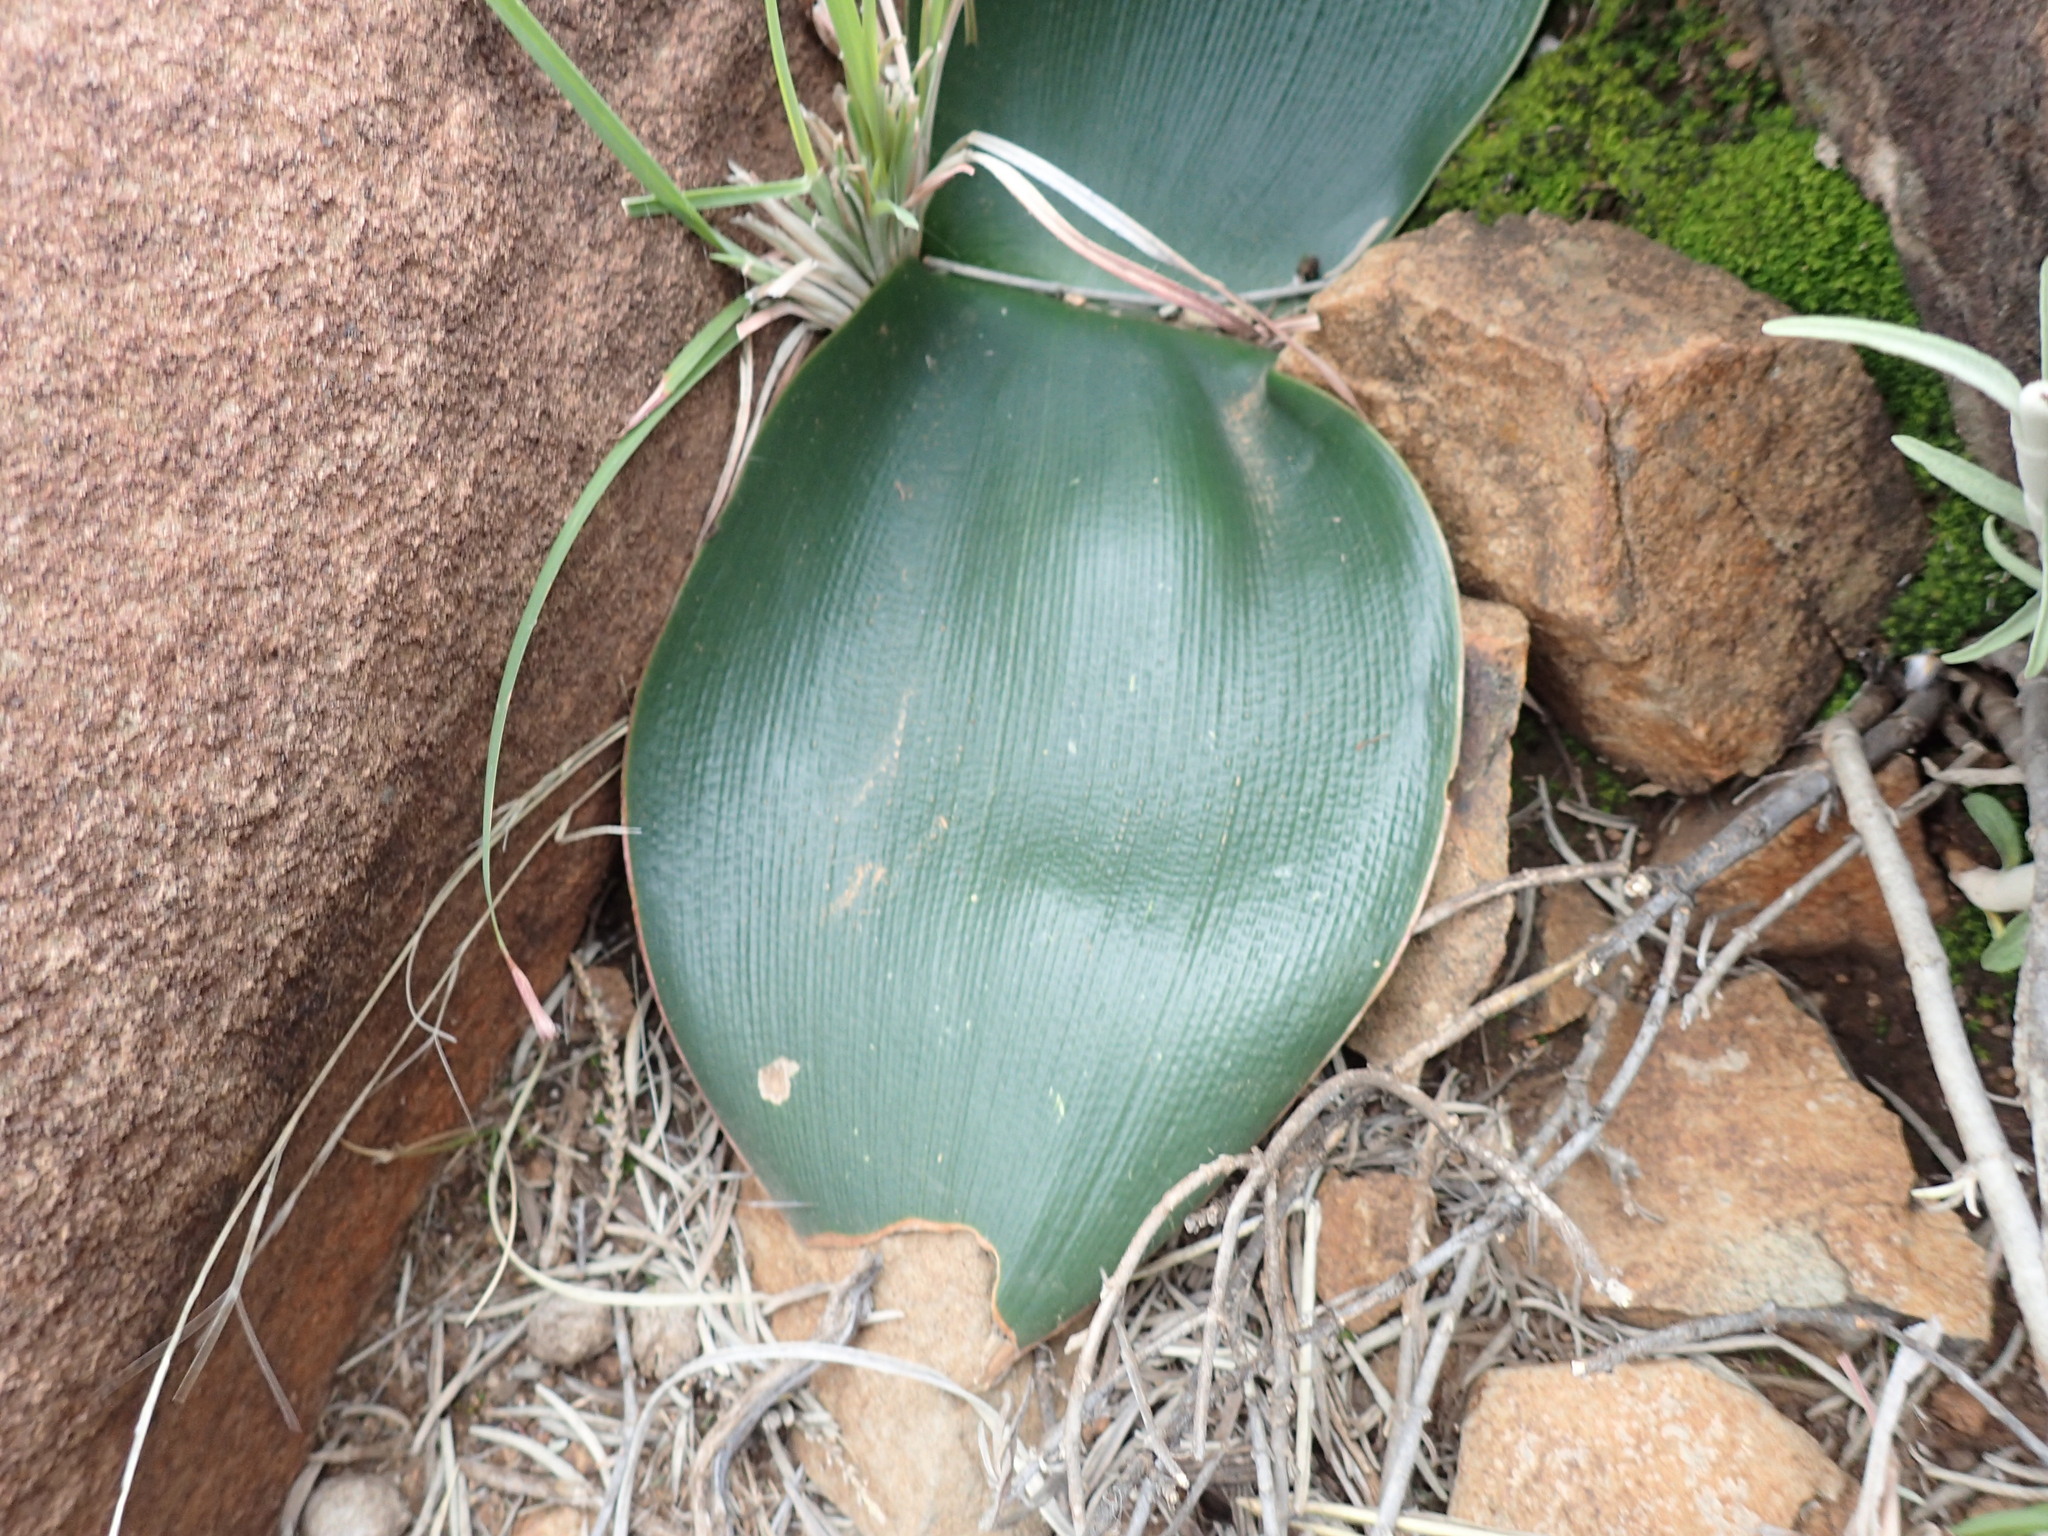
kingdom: Plantae
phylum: Tracheophyta
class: Liliopsida
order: Asparagales
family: Amaryllidaceae
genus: Brunsvigia
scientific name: Brunsvigia radulosa
